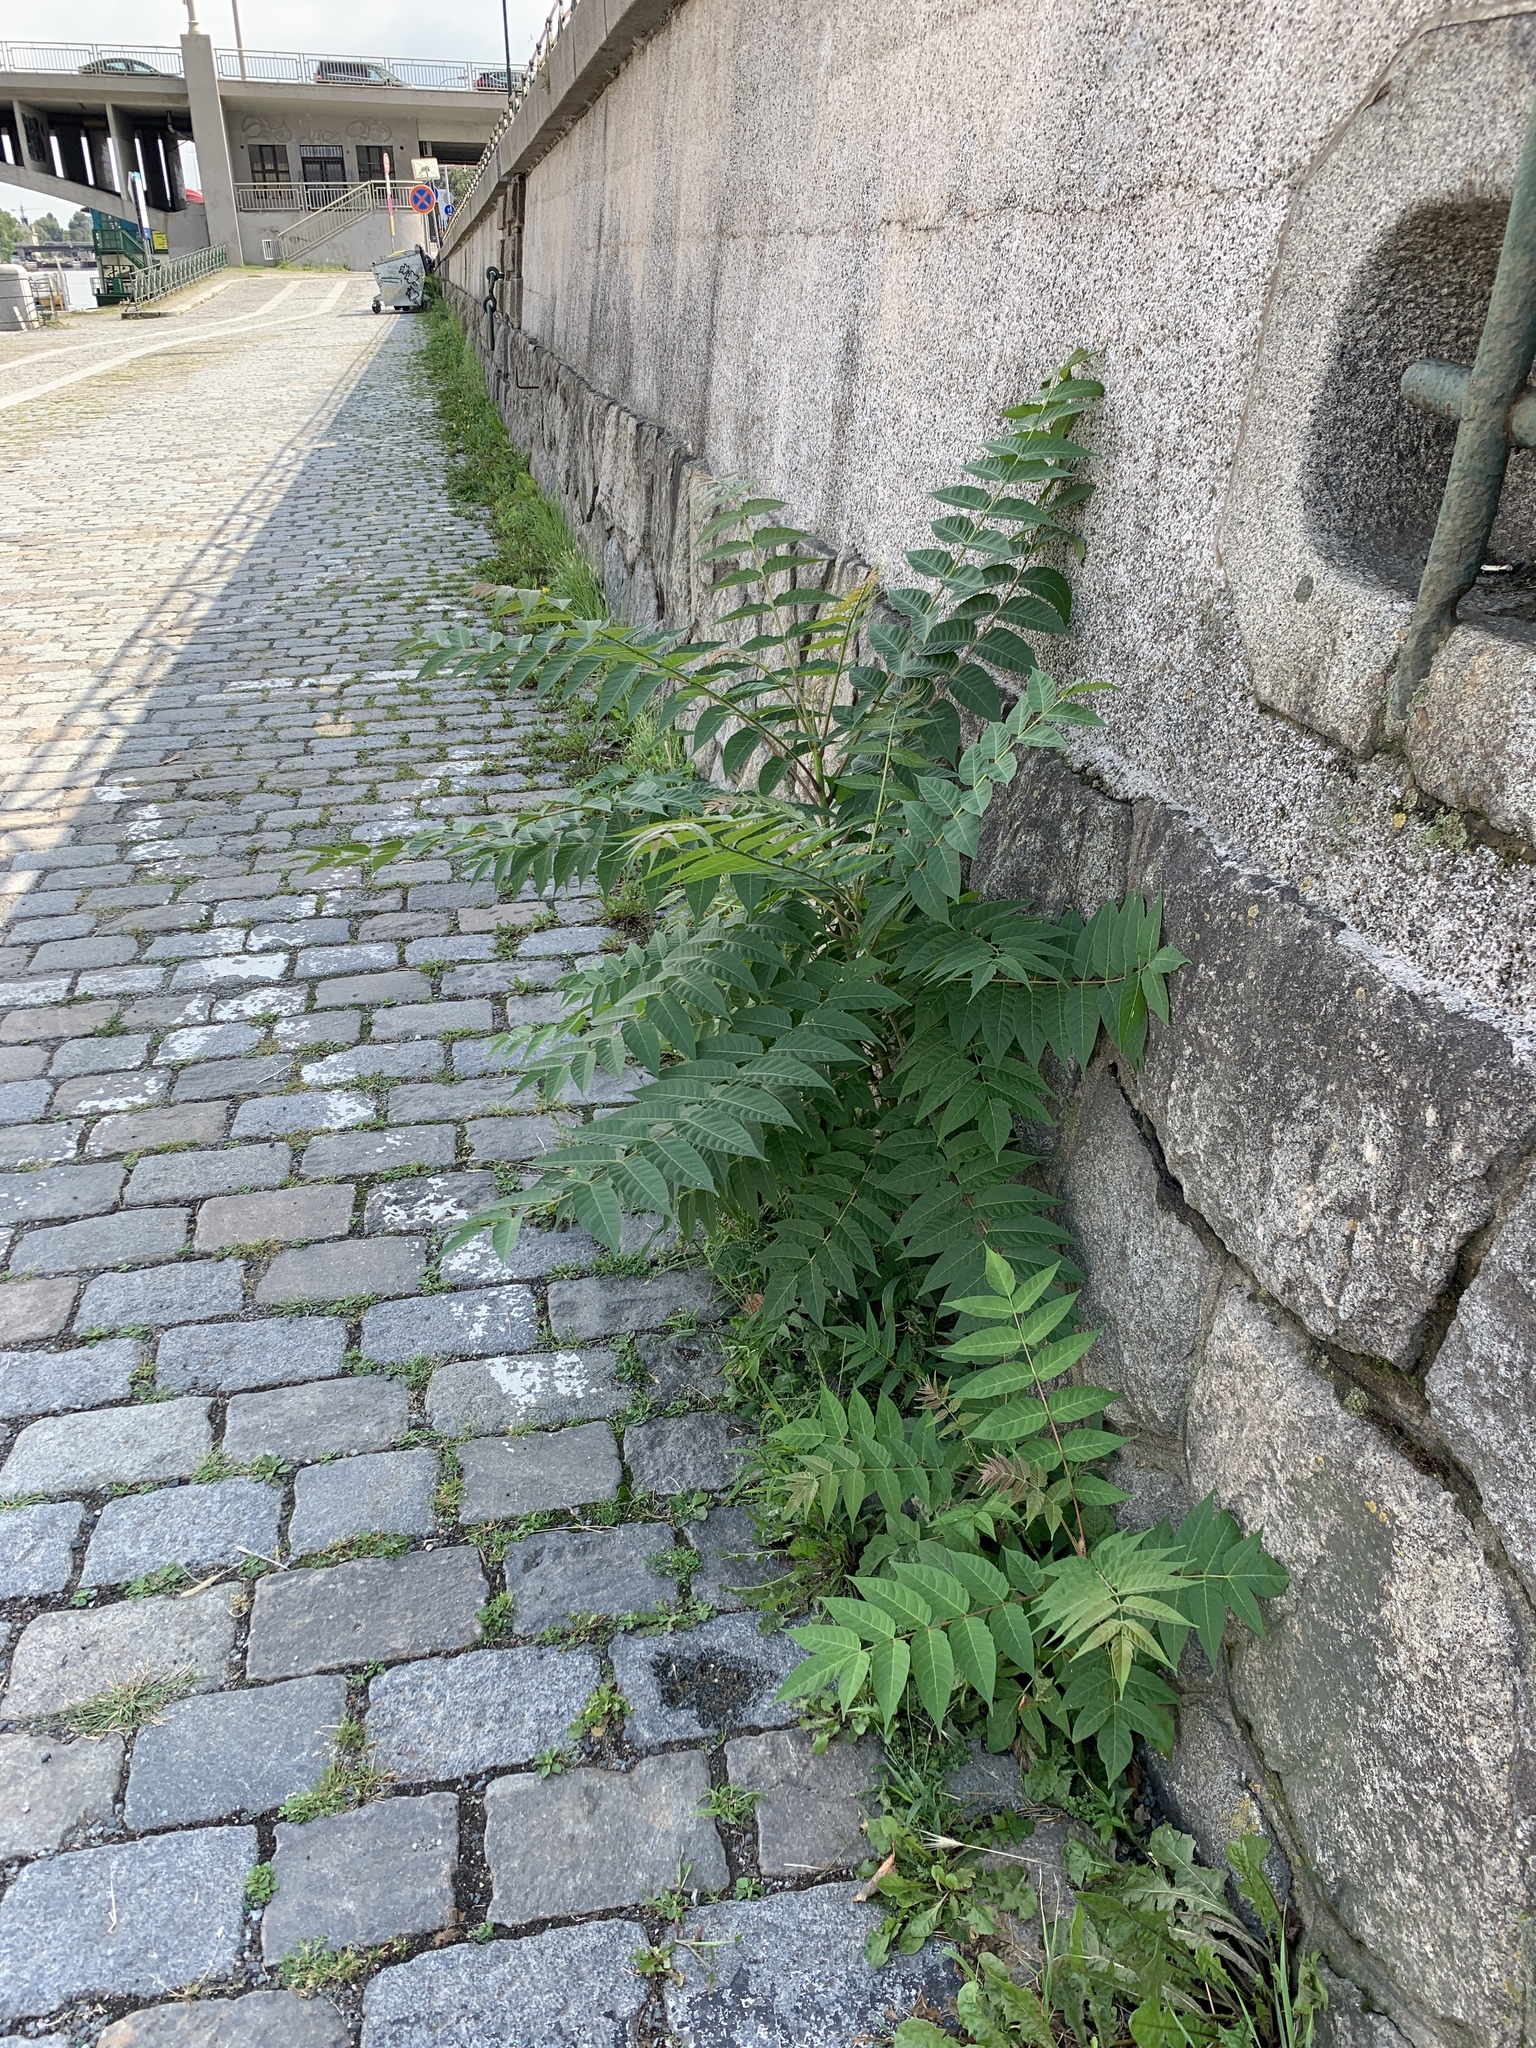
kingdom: Plantae
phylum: Tracheophyta
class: Magnoliopsida
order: Sapindales
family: Simaroubaceae
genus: Ailanthus
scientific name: Ailanthus altissima
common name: Tree-of-heaven
